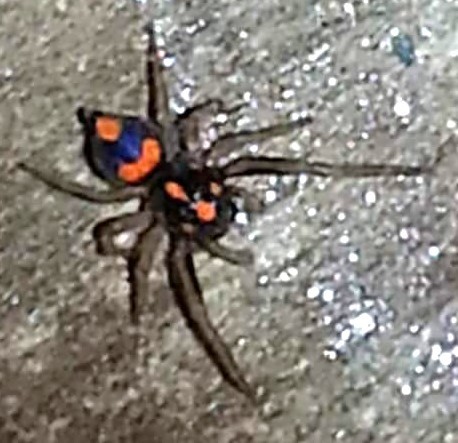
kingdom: Animalia
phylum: Arthropoda
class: Arachnida
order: Araneae
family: Salticidae
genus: Athamas
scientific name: Athamas whitmeei
